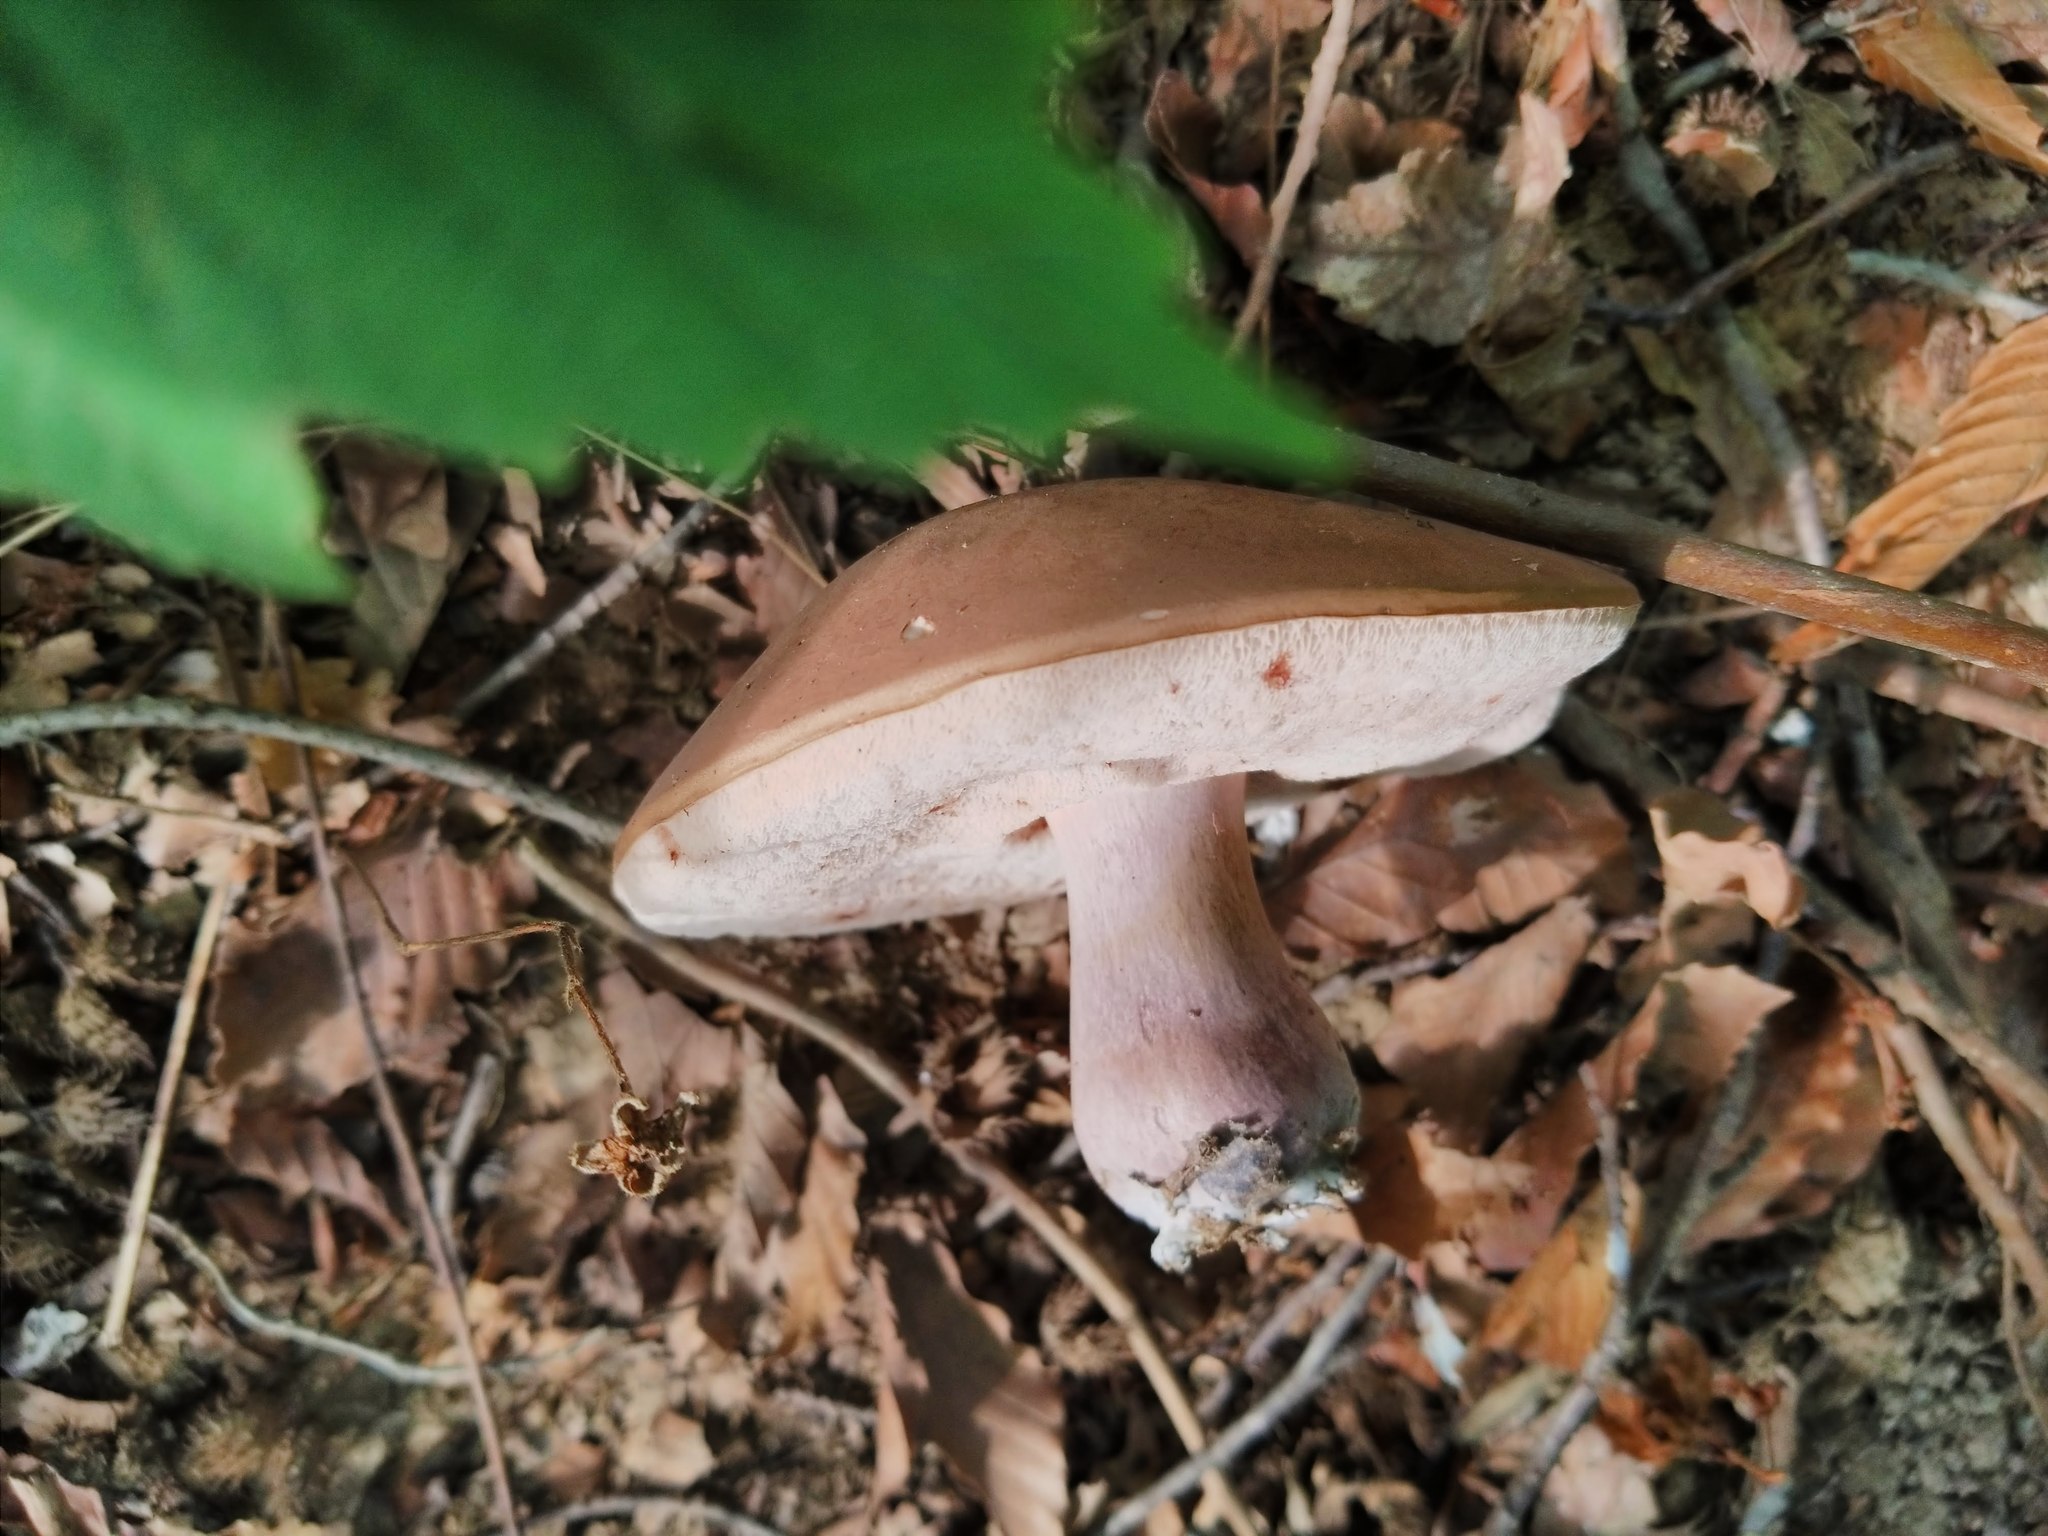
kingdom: Fungi
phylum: Basidiomycota
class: Agaricomycetes
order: Boletales
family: Boletaceae
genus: Tylopilus
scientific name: Tylopilus plumbeoviolaceus
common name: Violet gray bolete
